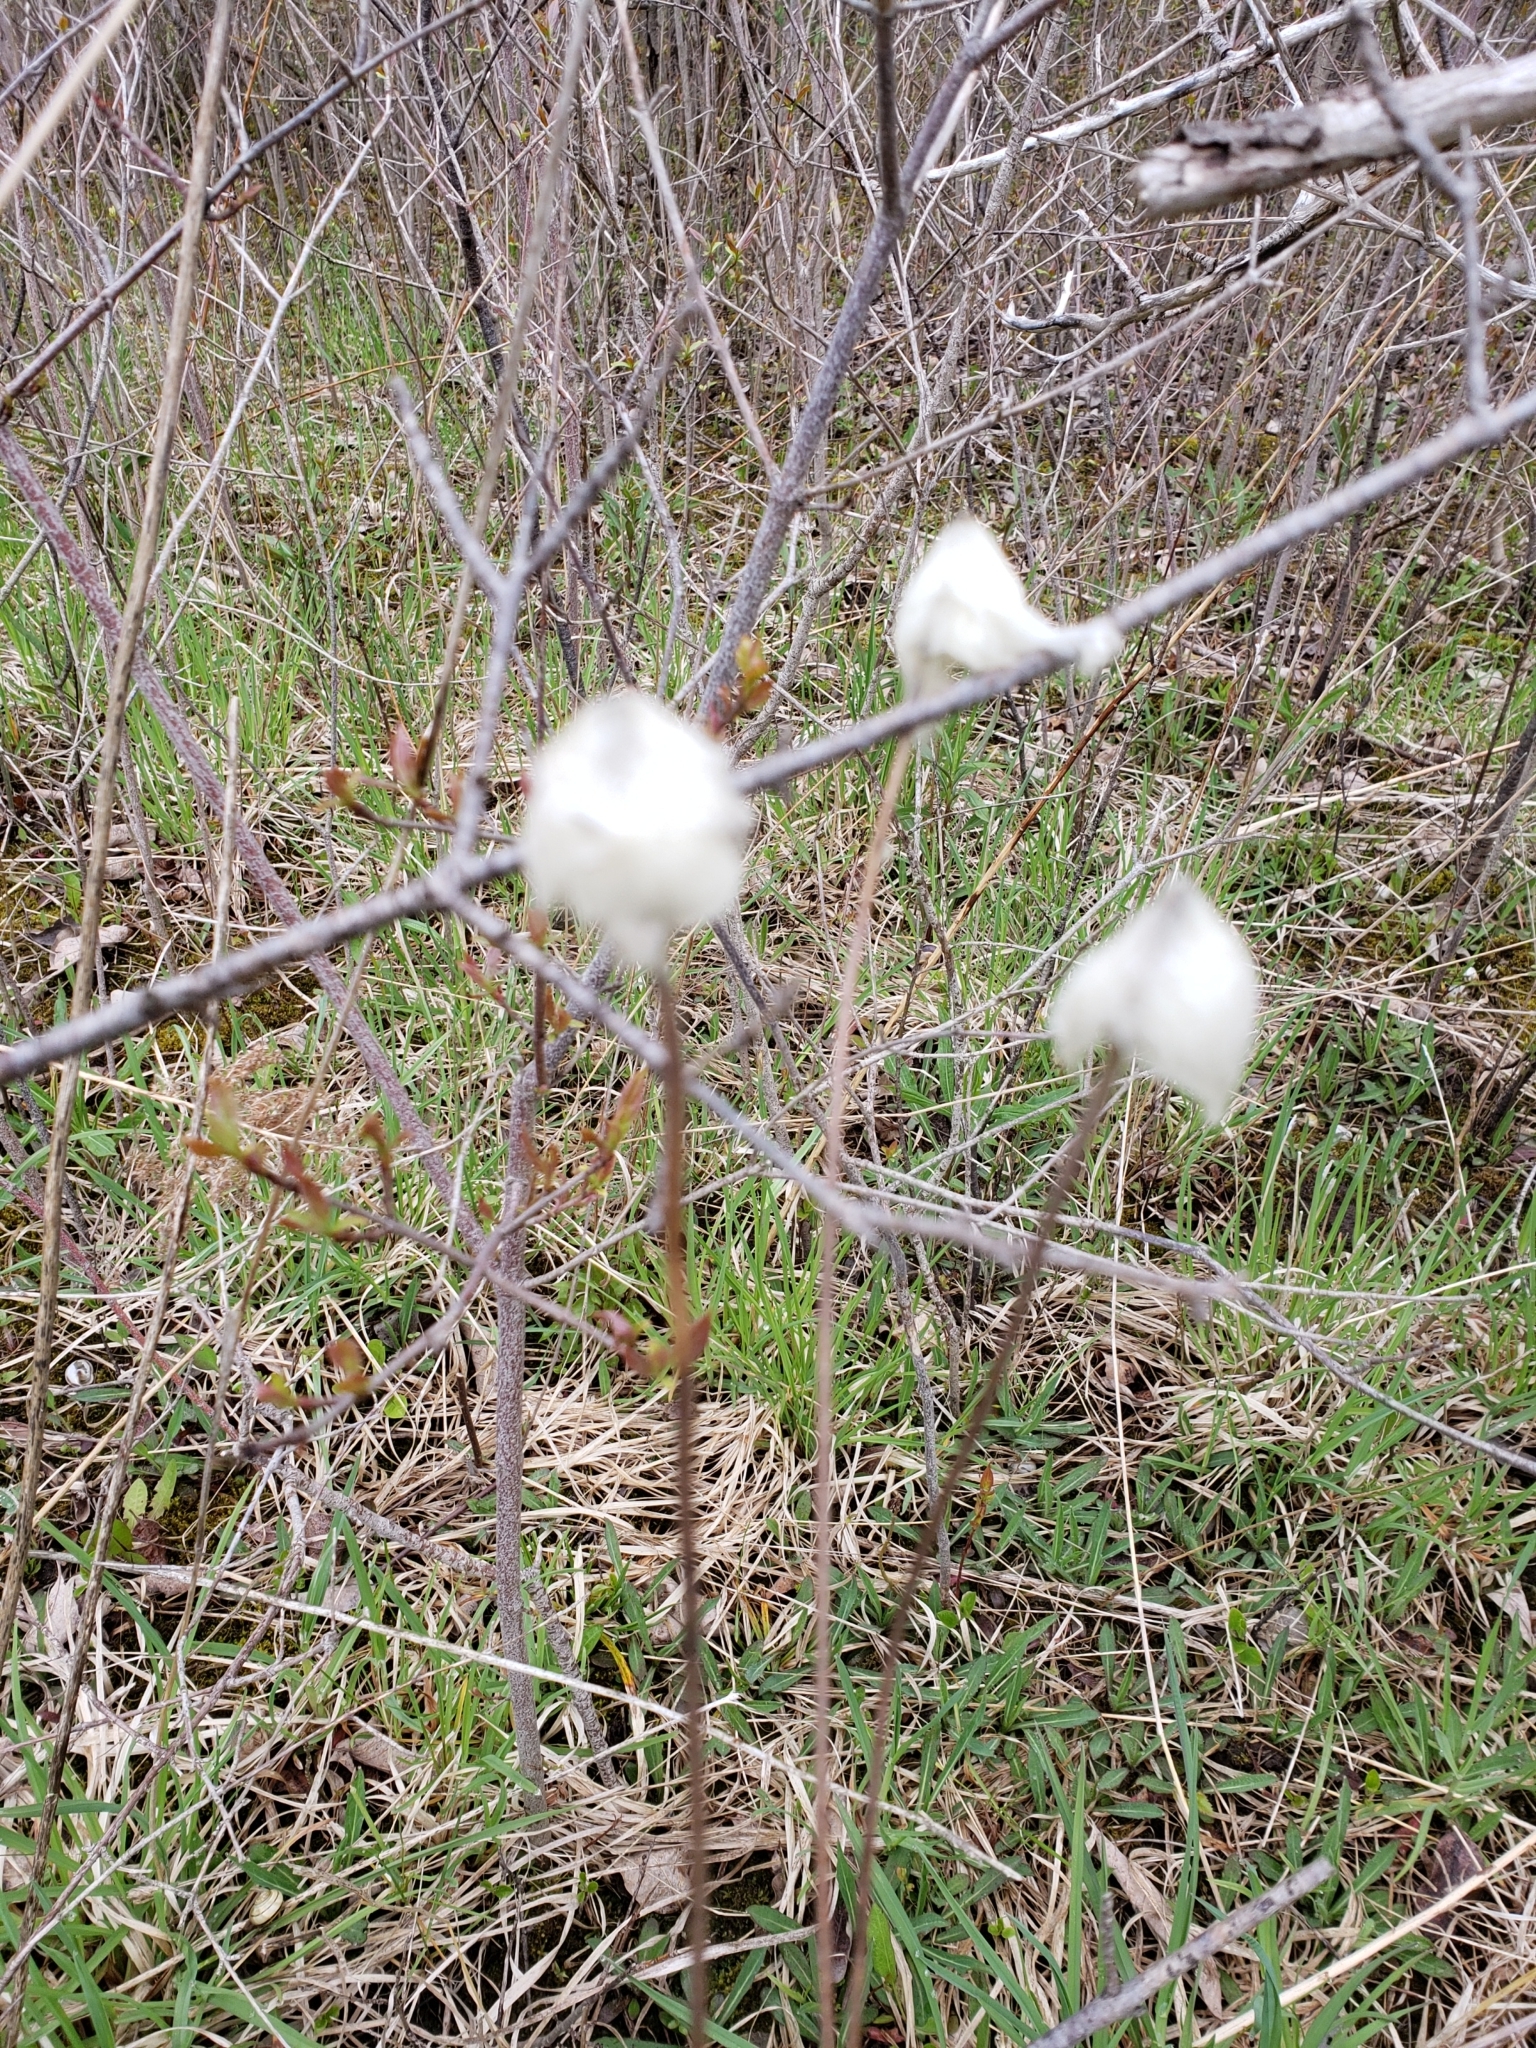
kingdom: Plantae
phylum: Tracheophyta
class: Liliopsida
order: Poales
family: Cyperaceae
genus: Eriophorum
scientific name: Eriophorum vaginatum
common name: Hare's-tail cottongrass
